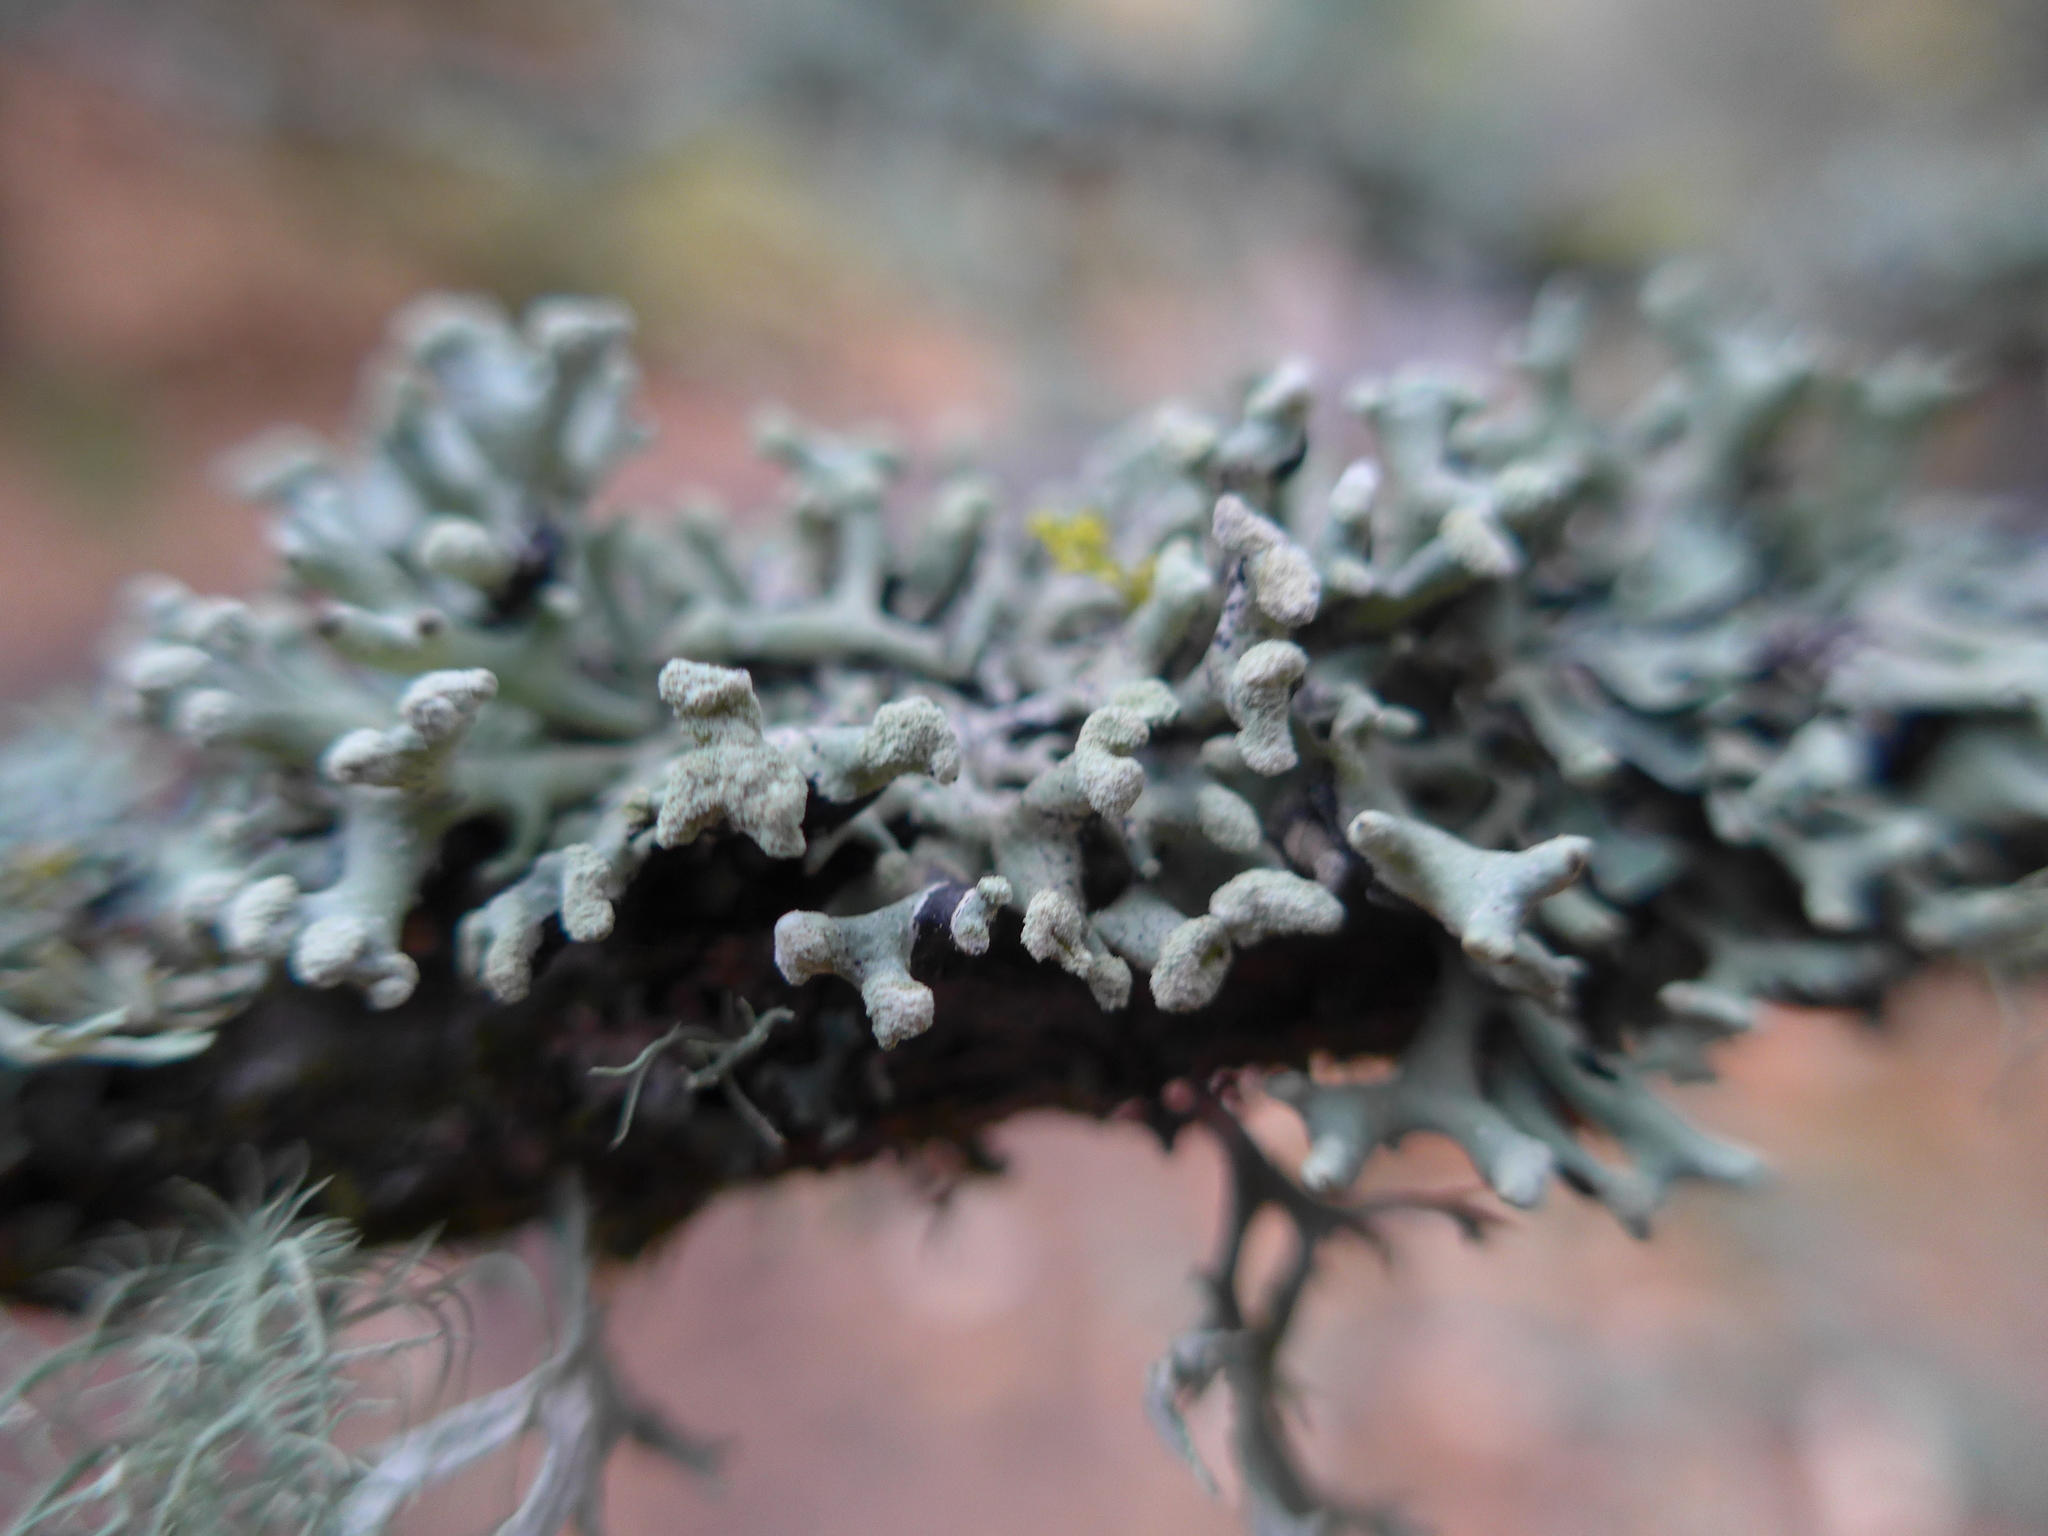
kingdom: Fungi
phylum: Ascomycota
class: Lecanoromycetes
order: Lecanorales
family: Parmeliaceae
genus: Hypogymnia
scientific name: Hypogymnia tubulosa
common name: Powder-headed tube lichen
